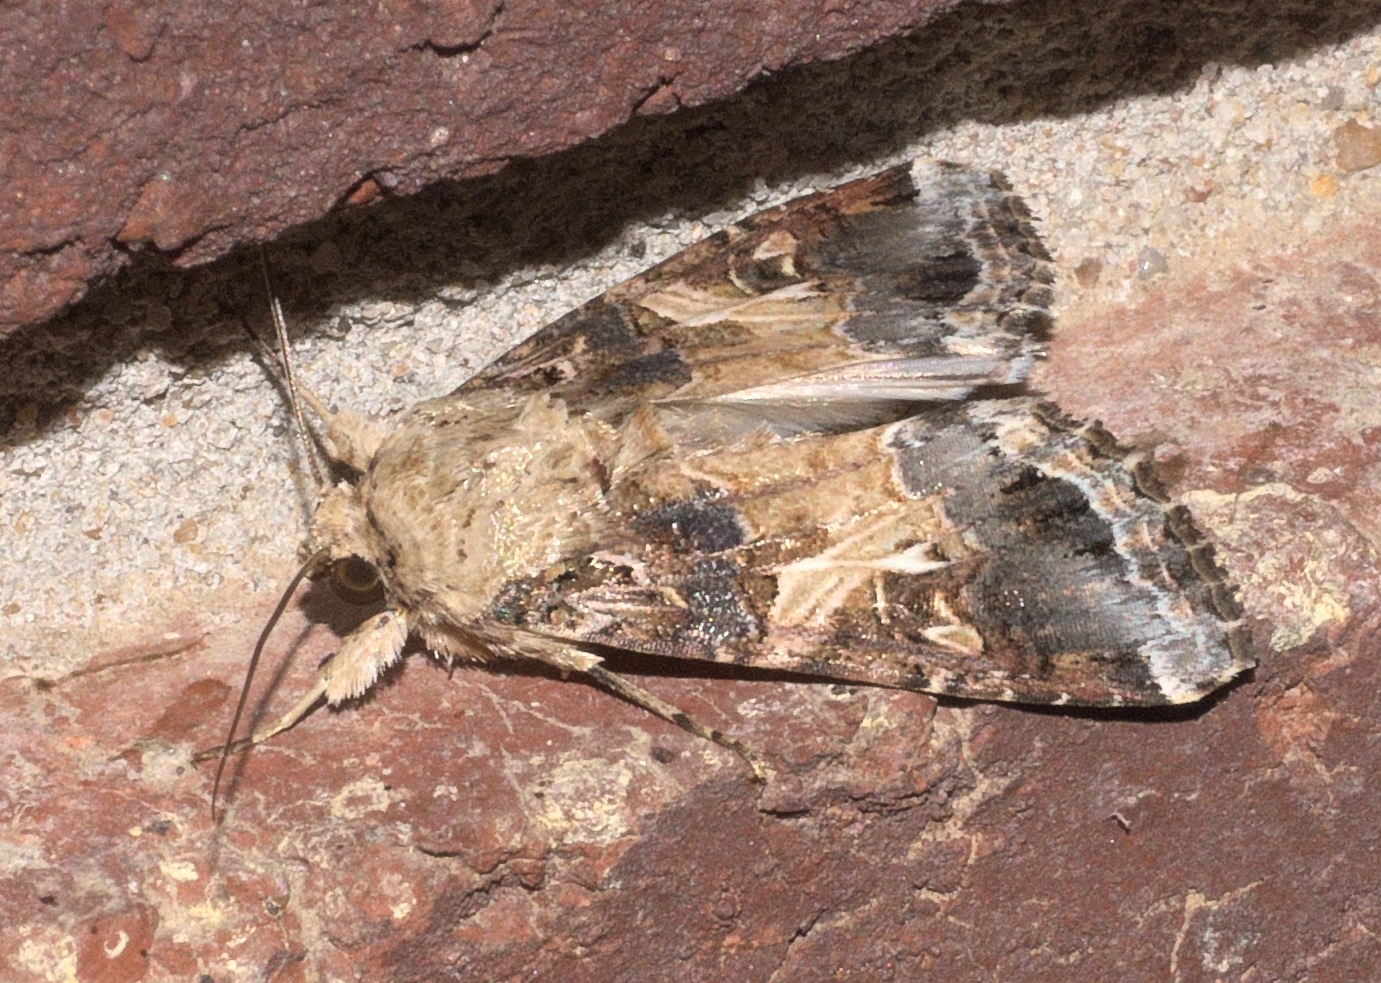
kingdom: Animalia
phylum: Arthropoda
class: Insecta
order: Lepidoptera
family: Noctuidae
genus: Spodoptera
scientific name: Spodoptera ornithogalli
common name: Yellow-striped armyworm
